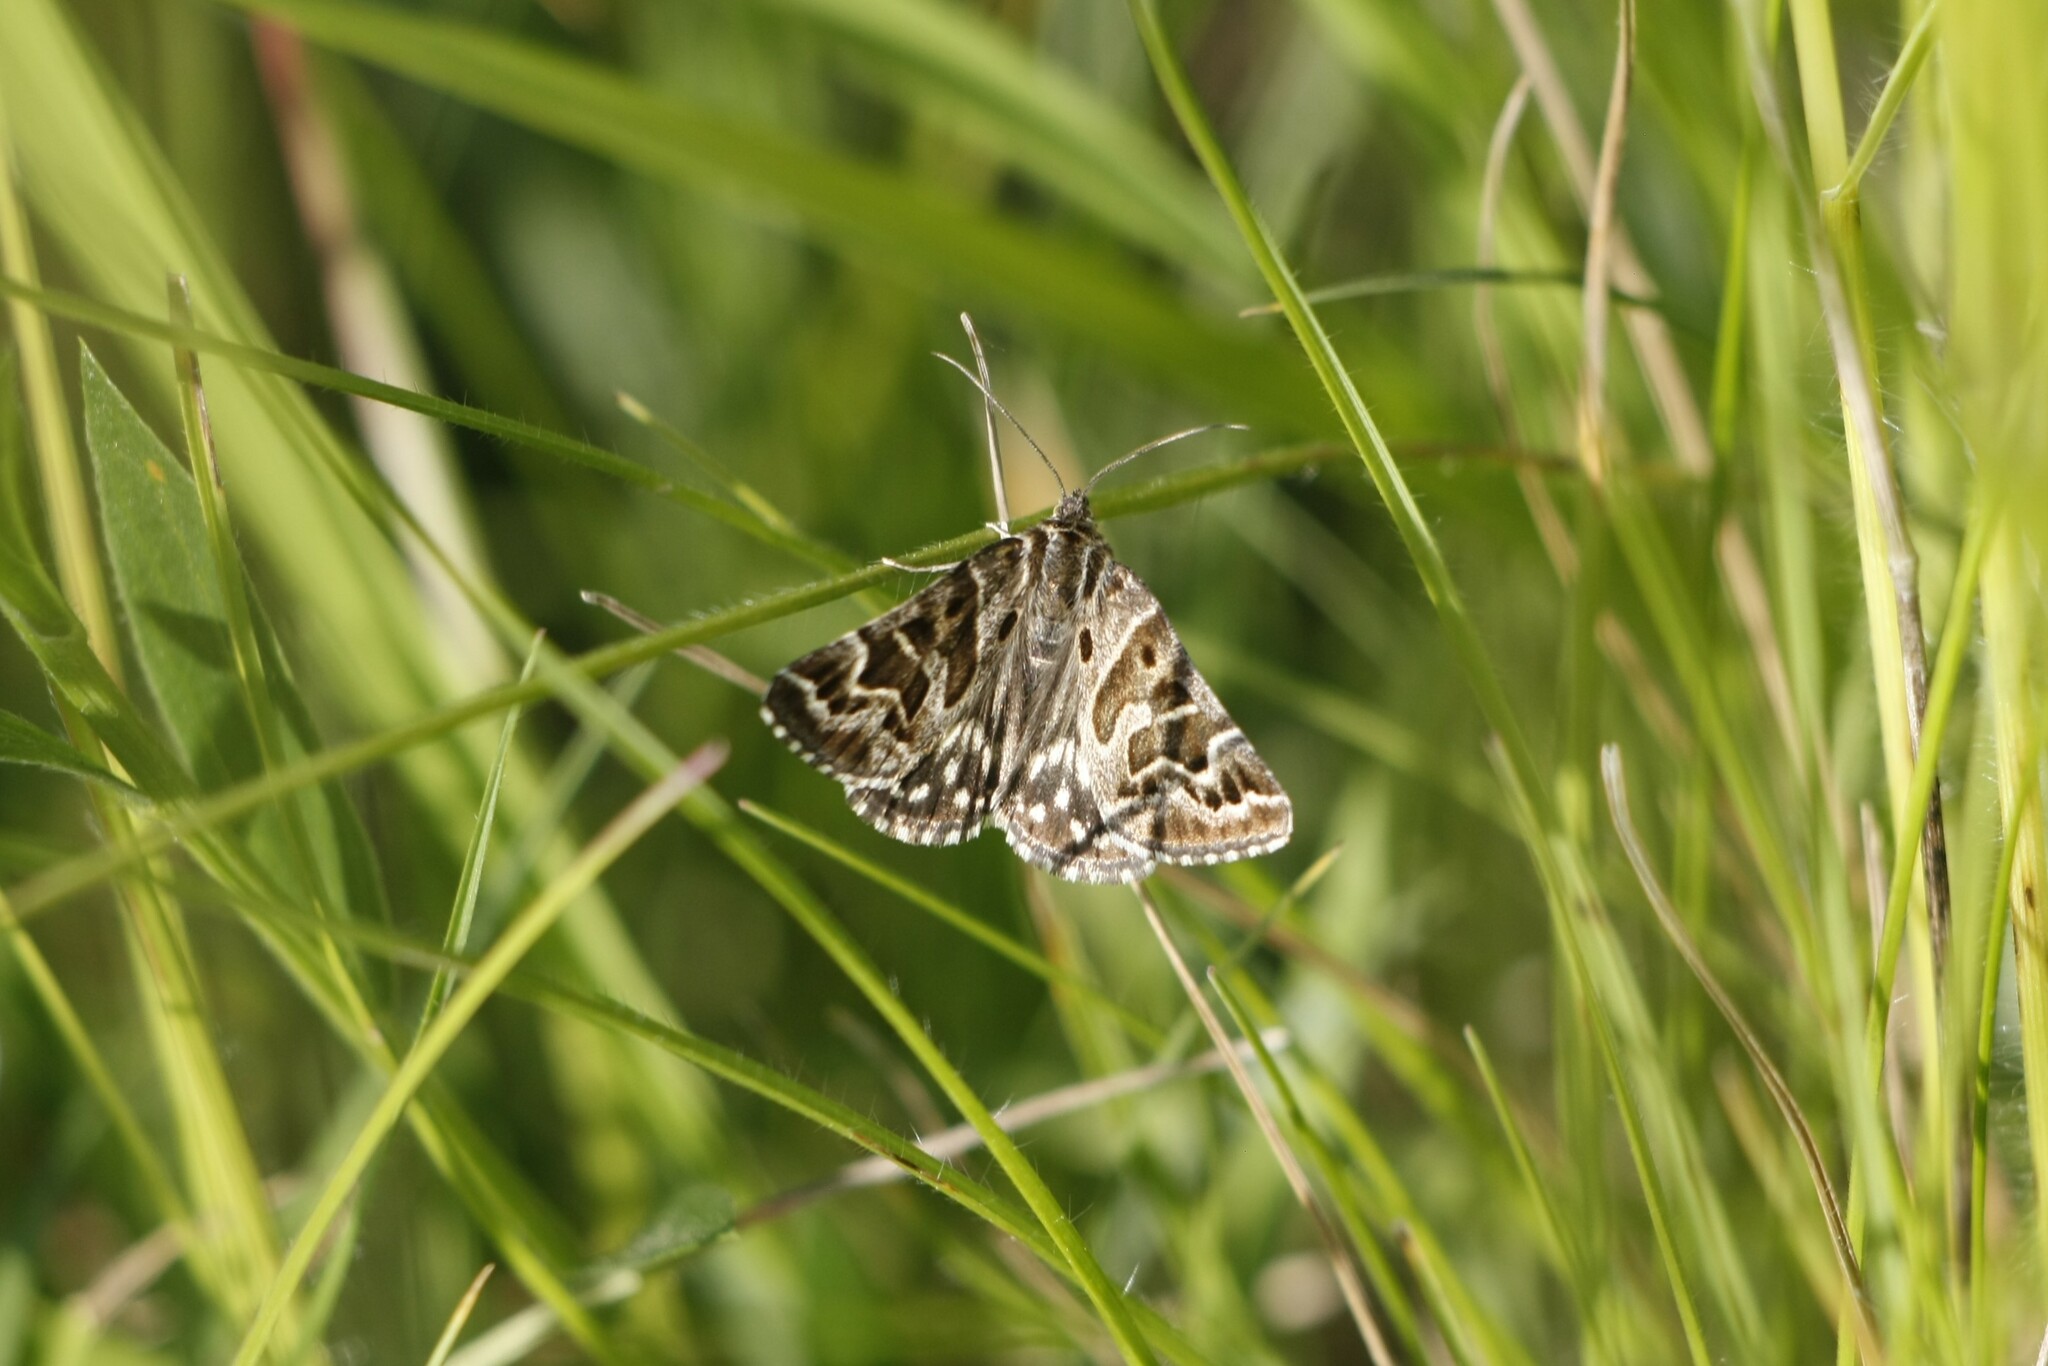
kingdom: Animalia
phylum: Arthropoda
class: Insecta
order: Lepidoptera
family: Erebidae
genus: Callistege
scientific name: Callistege mi
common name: Mother shipton
